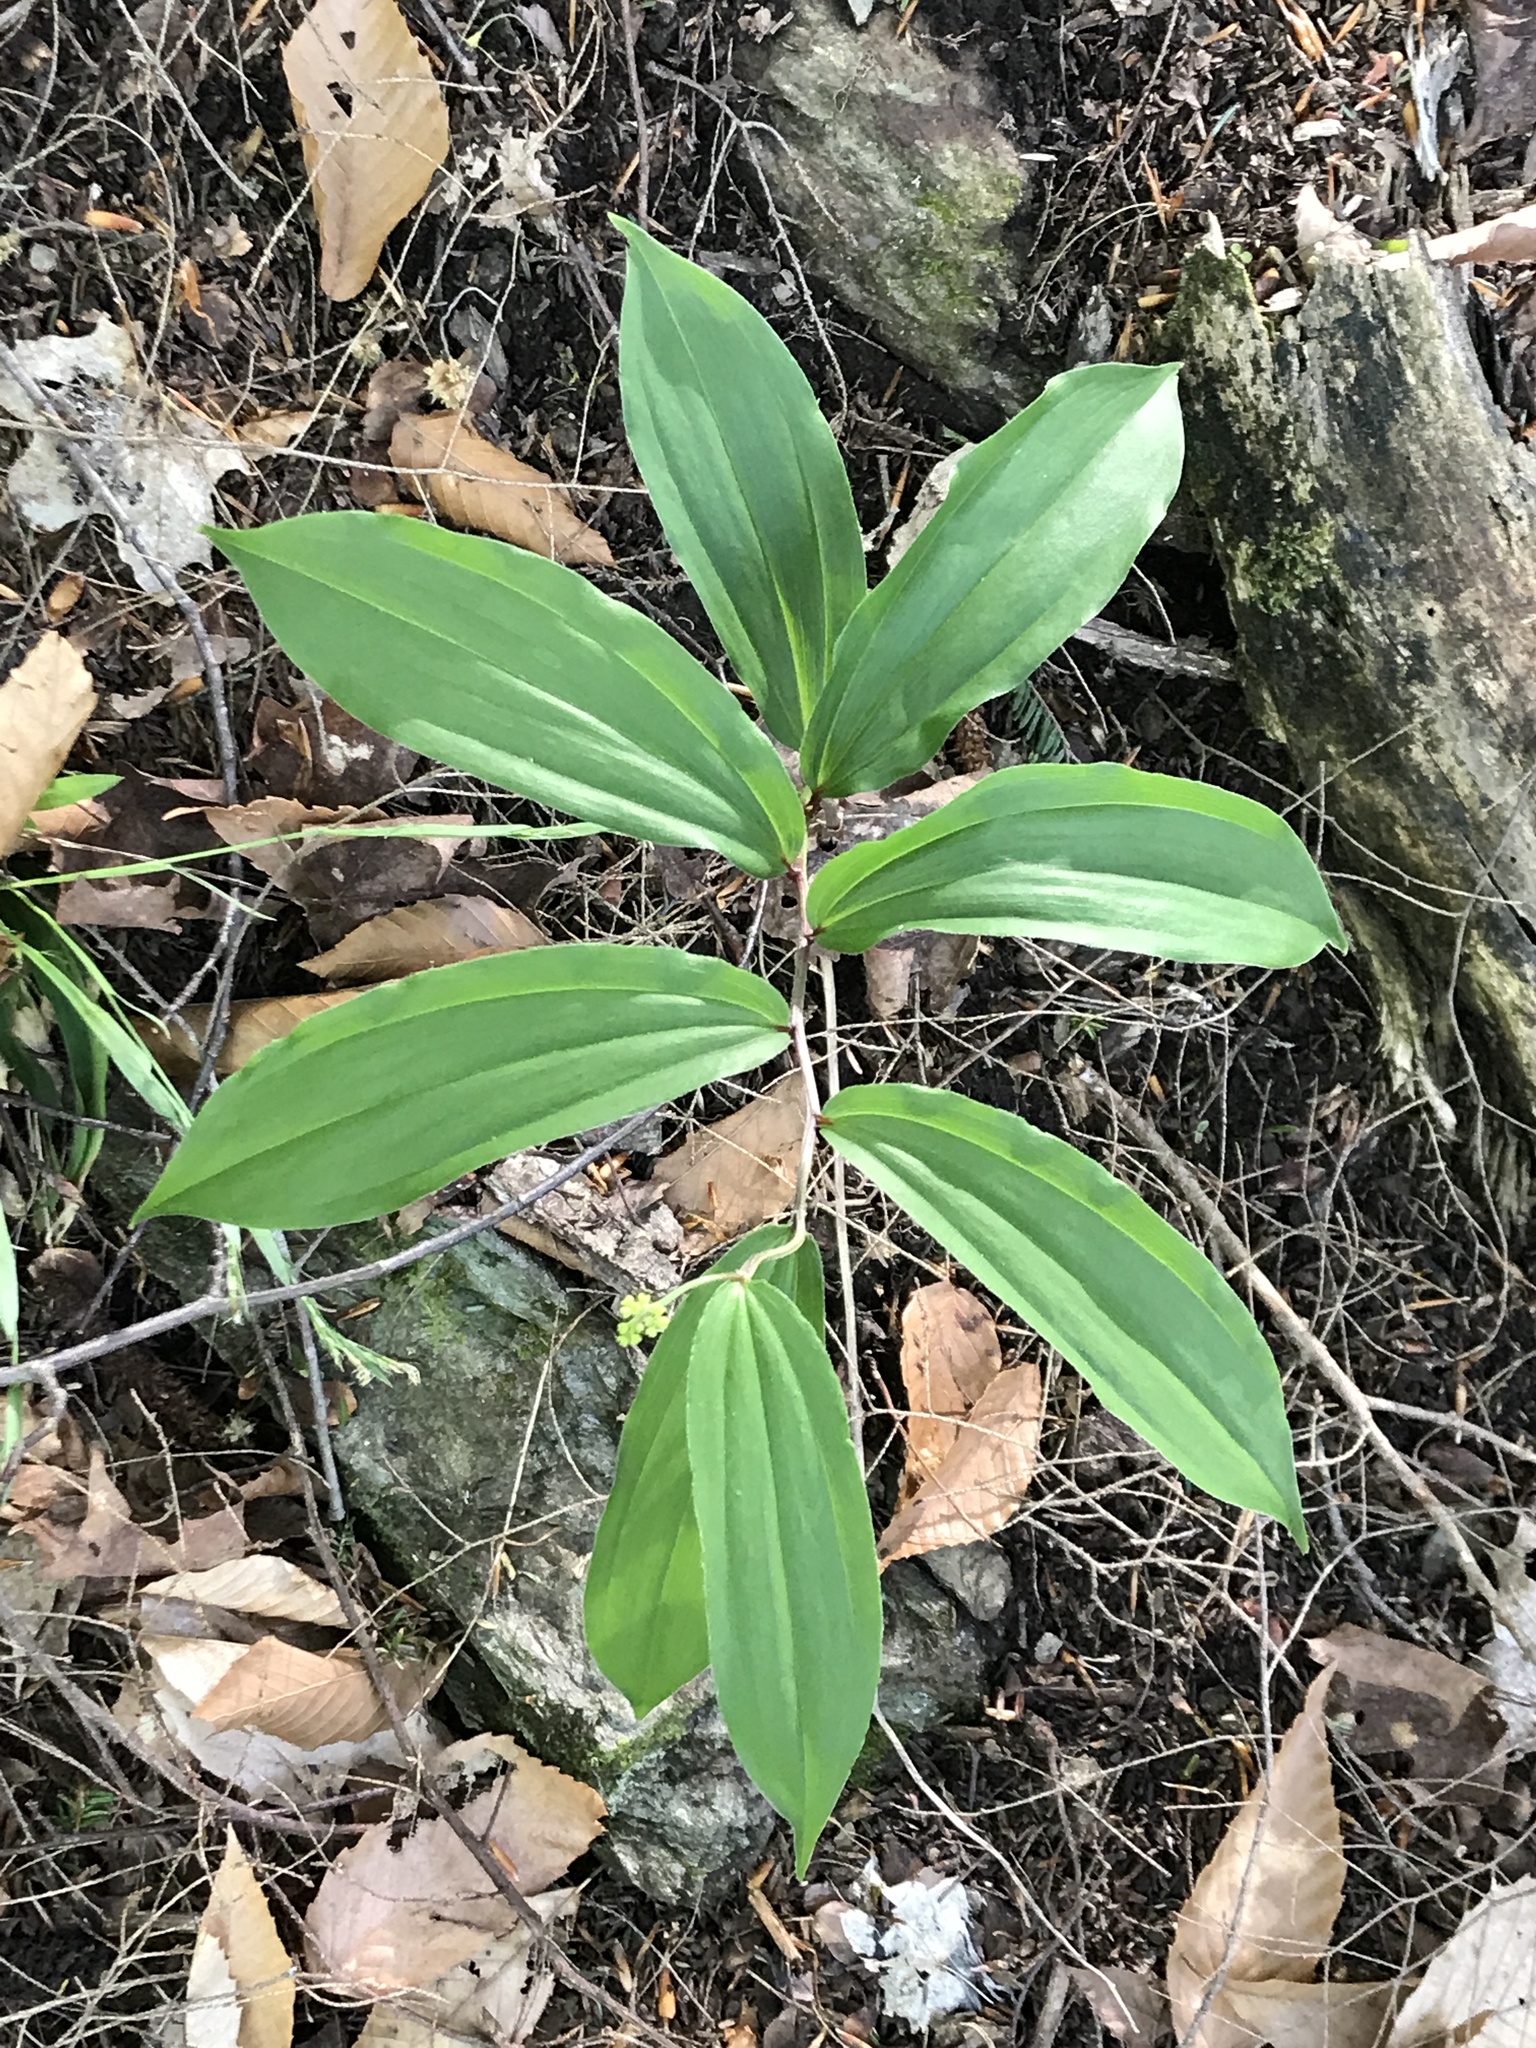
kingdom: Plantae
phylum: Tracheophyta
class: Liliopsida
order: Asparagales
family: Asparagaceae
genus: Maianthemum
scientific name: Maianthemum racemosum
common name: False spikenard
